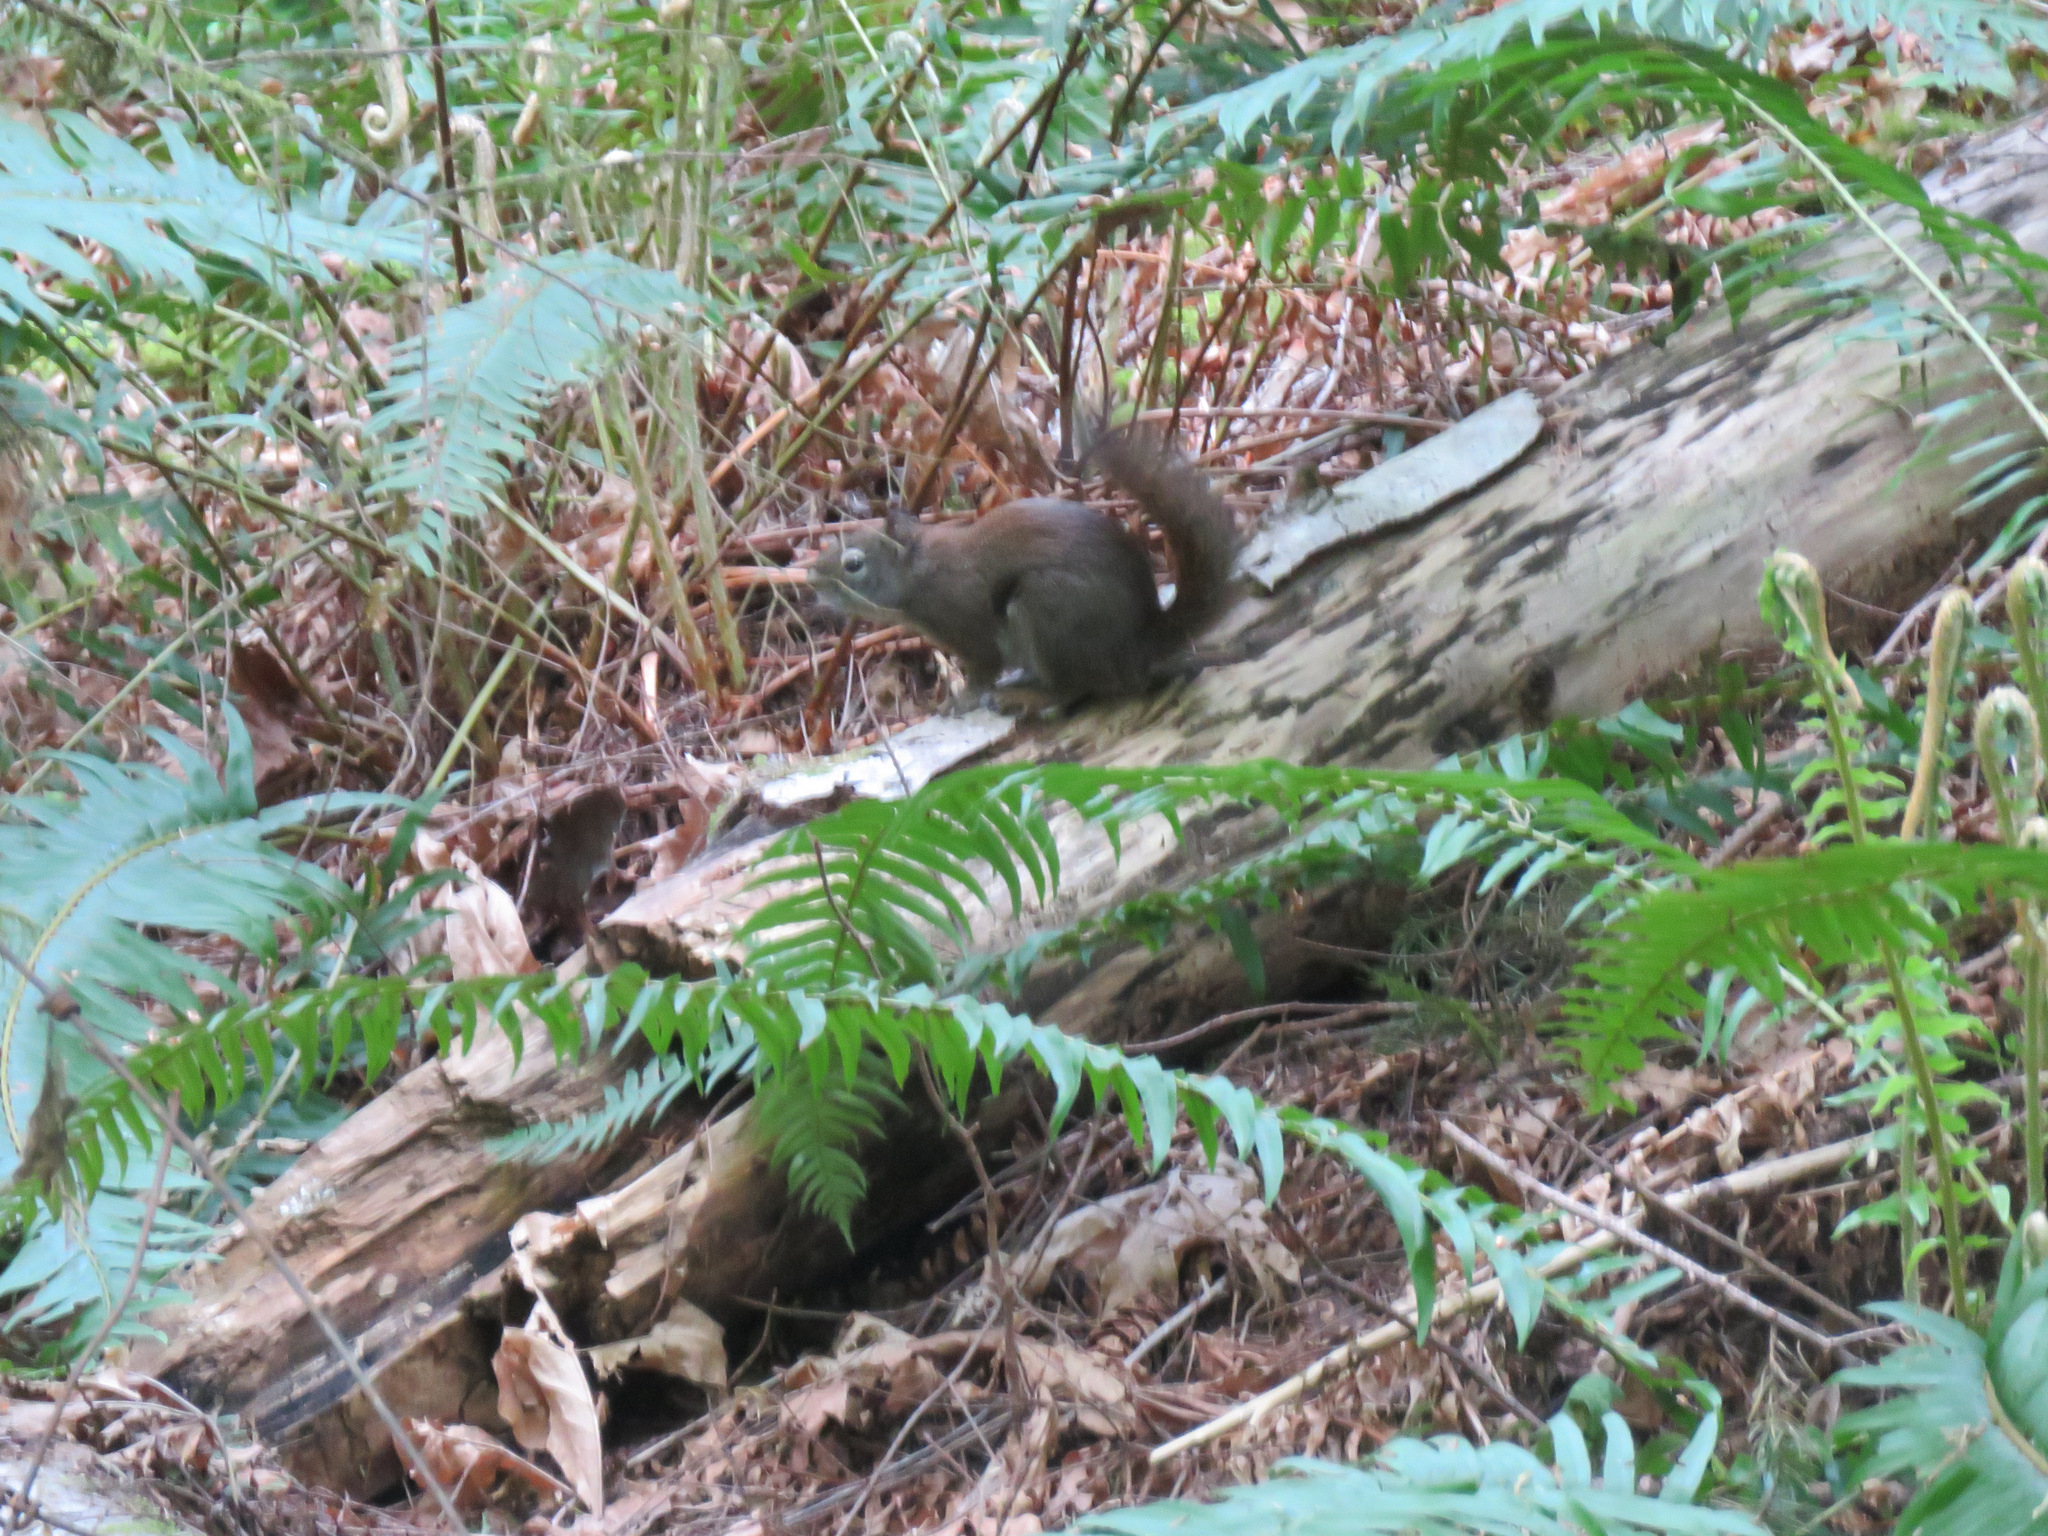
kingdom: Animalia
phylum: Chordata
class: Mammalia
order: Rodentia
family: Sciuridae
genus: Tamiasciurus
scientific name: Tamiasciurus hudsonicus
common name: Red squirrel
